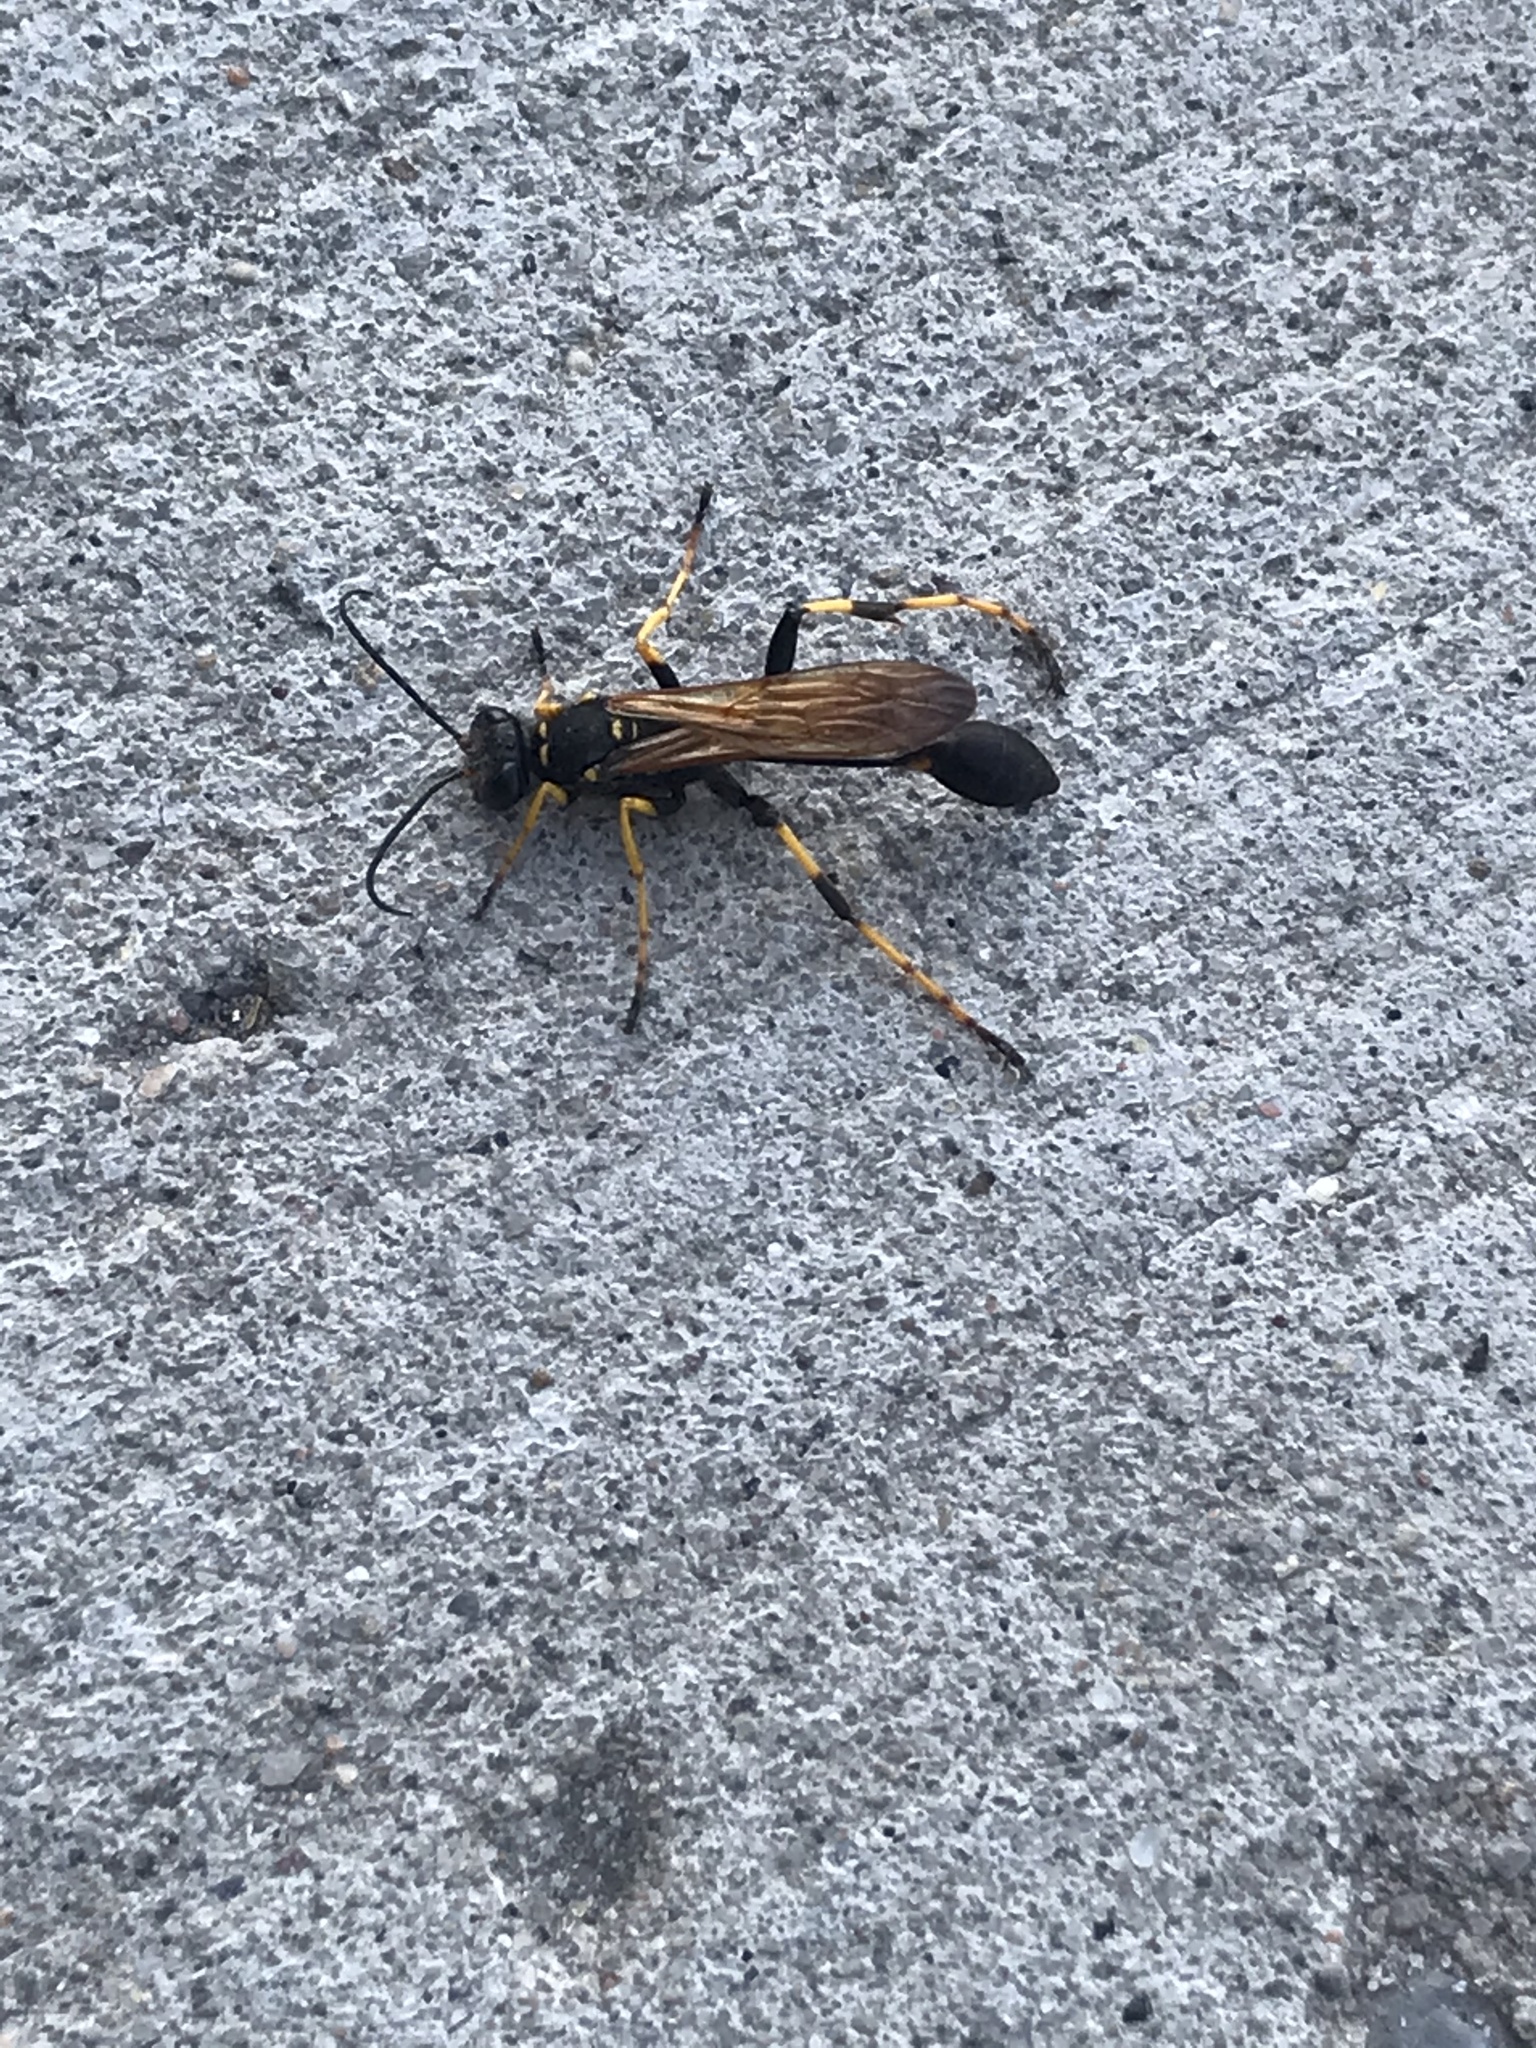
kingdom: Animalia
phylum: Arthropoda
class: Insecta
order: Hymenoptera
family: Sphecidae
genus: Sceliphron
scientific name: Sceliphron caementarium
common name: Mud dauber
